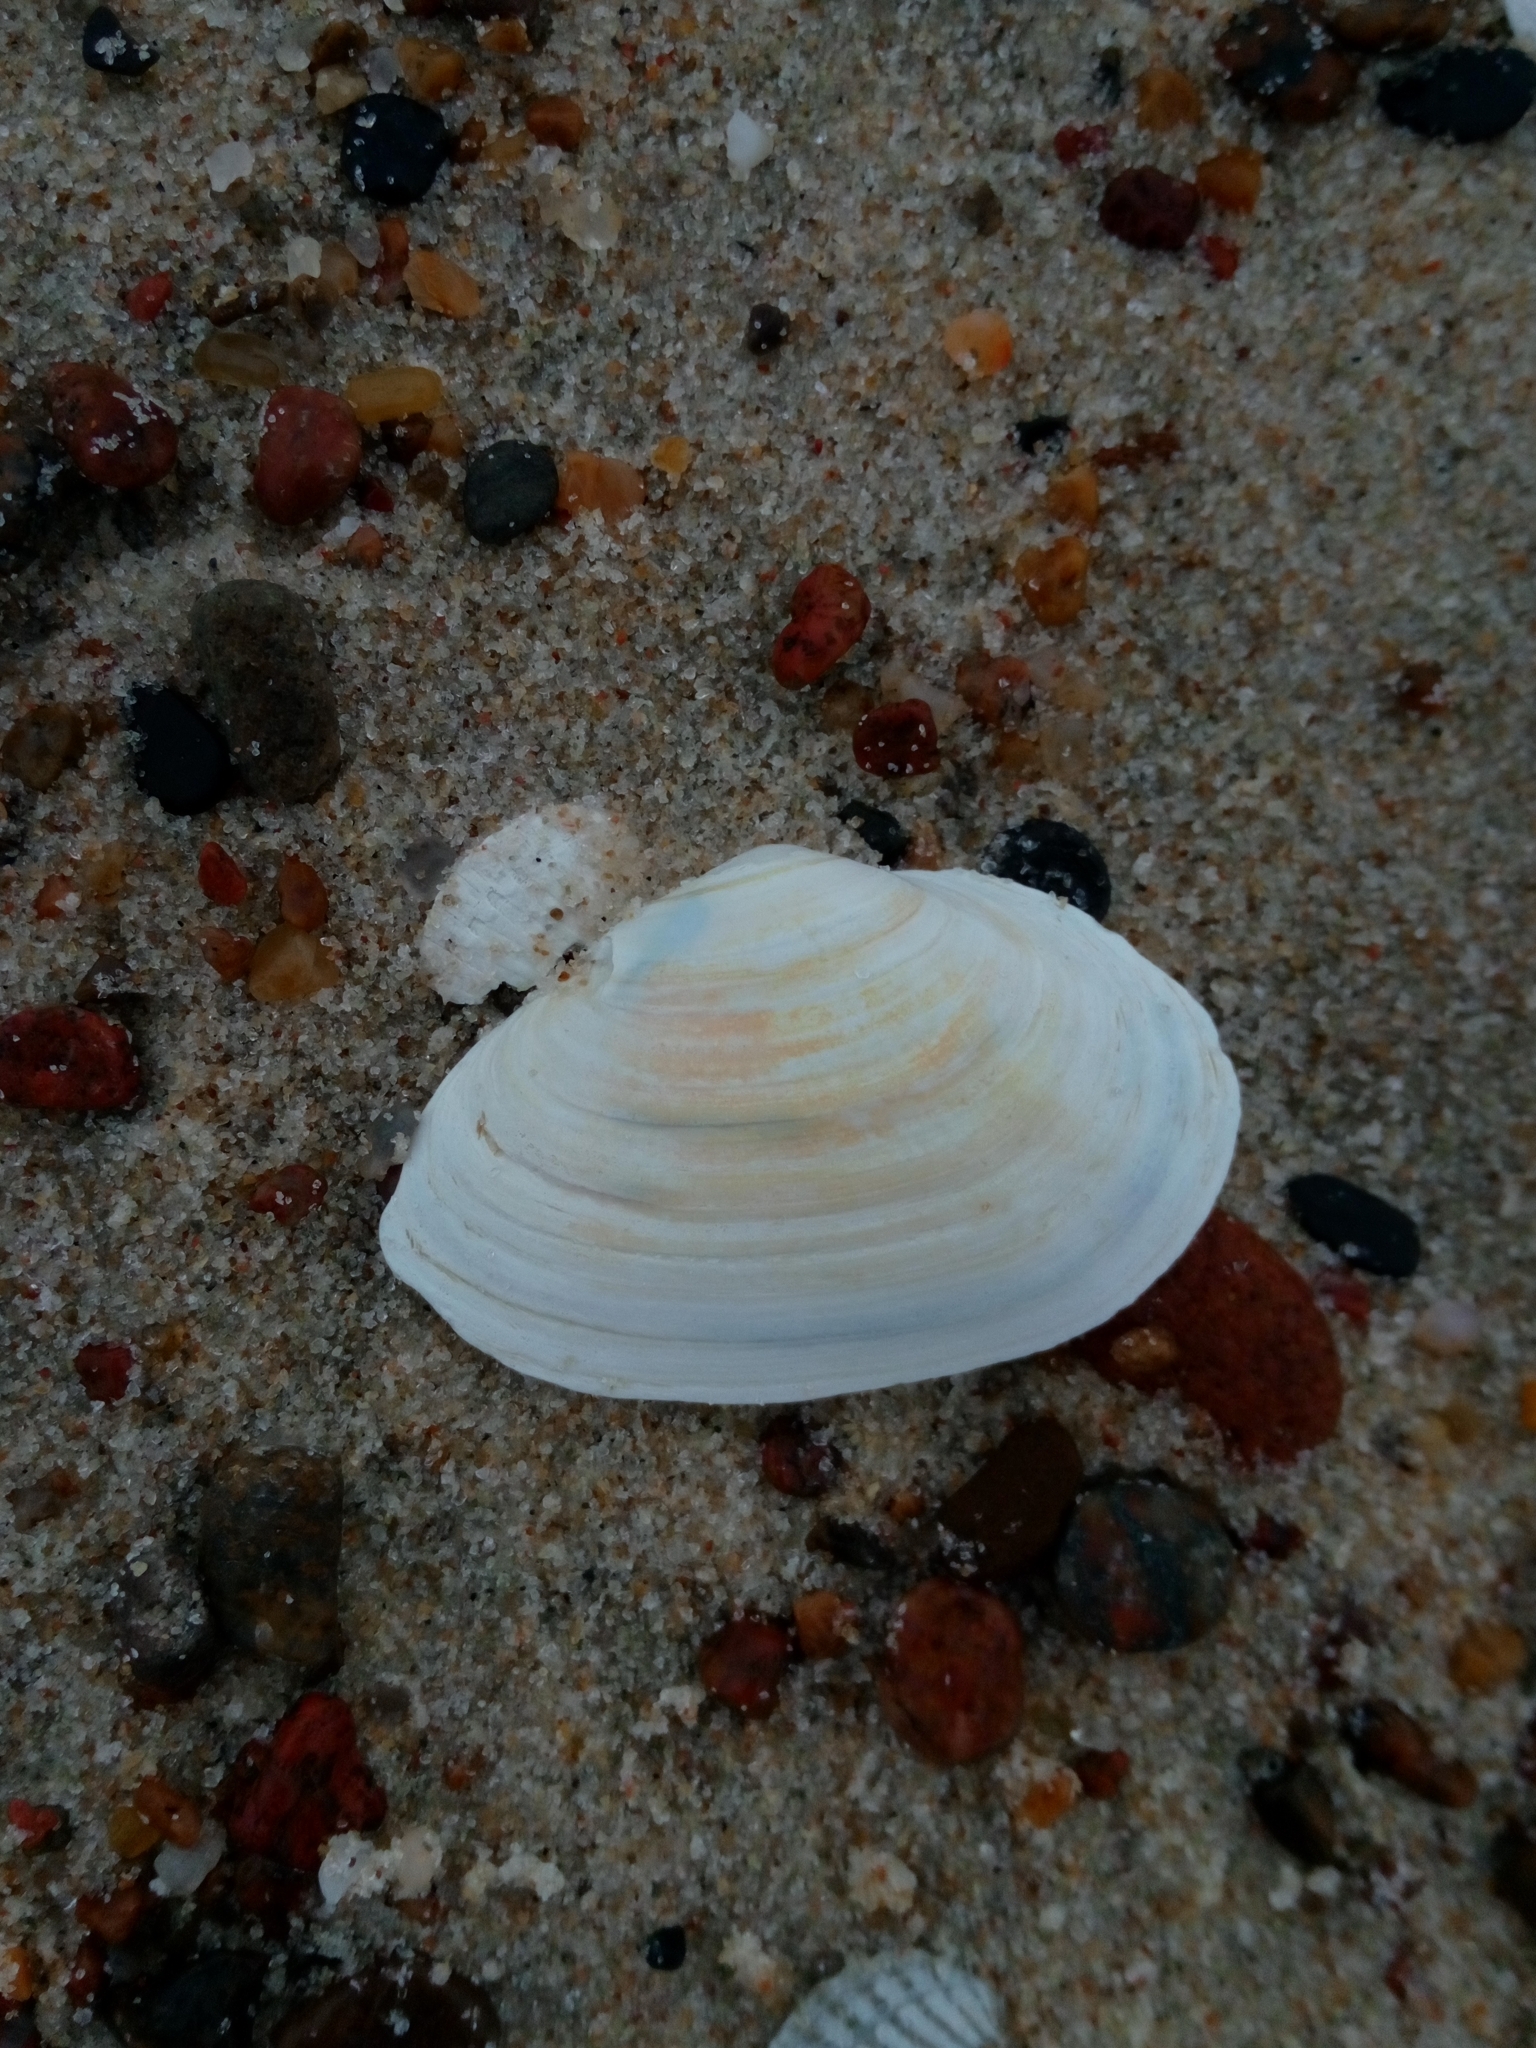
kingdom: Animalia
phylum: Mollusca
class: Bivalvia
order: Myida
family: Myidae
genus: Mya
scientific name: Mya arenaria
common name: Soft-shelled clam
